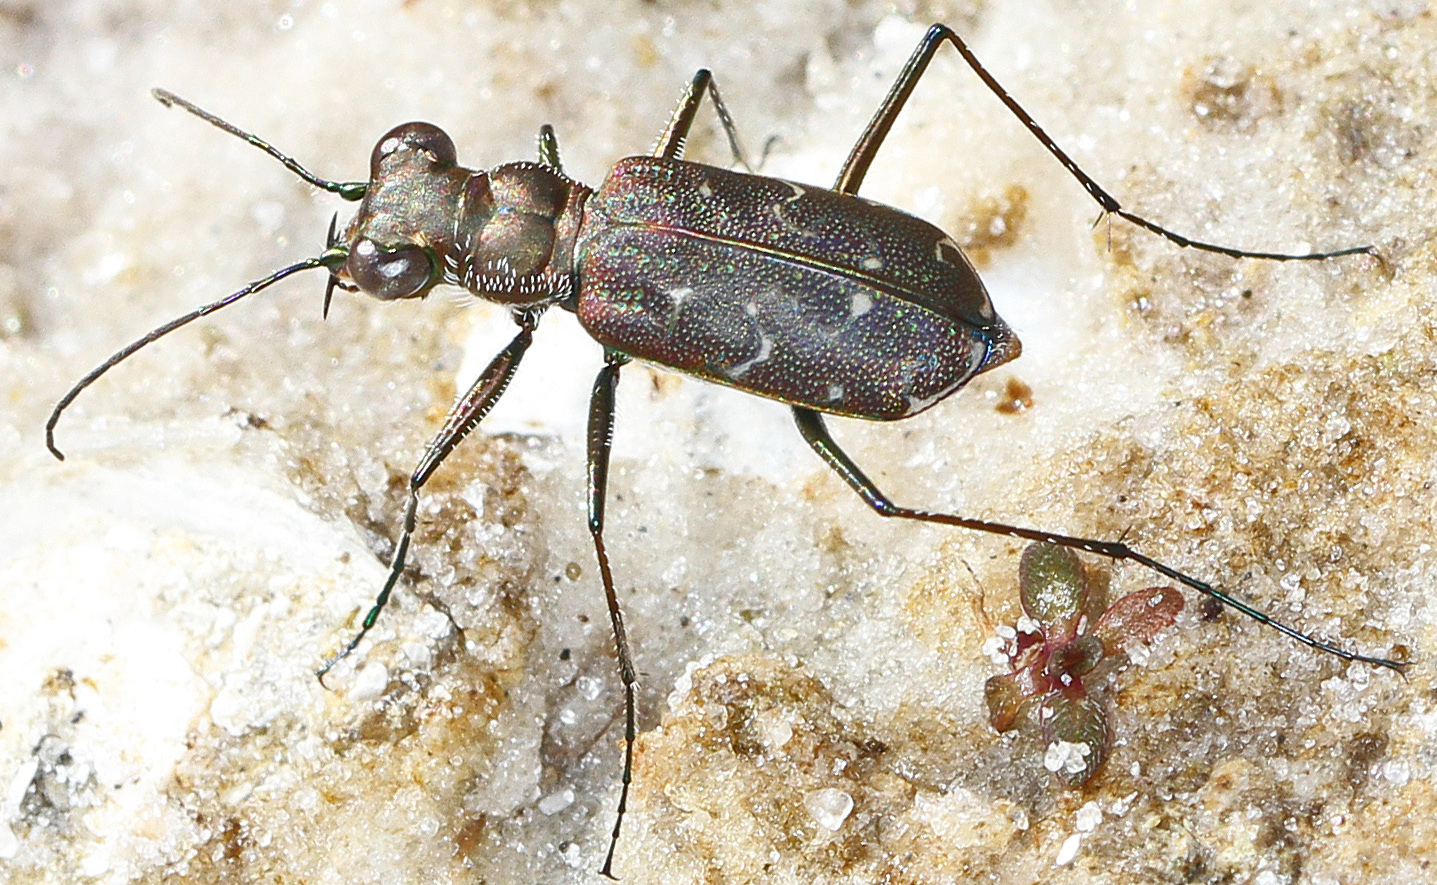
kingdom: Animalia
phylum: Arthropoda
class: Insecta
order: Coleoptera
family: Carabidae
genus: Cicindela
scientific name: Cicindela trifasciata
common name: Mudflat tiger beetle
